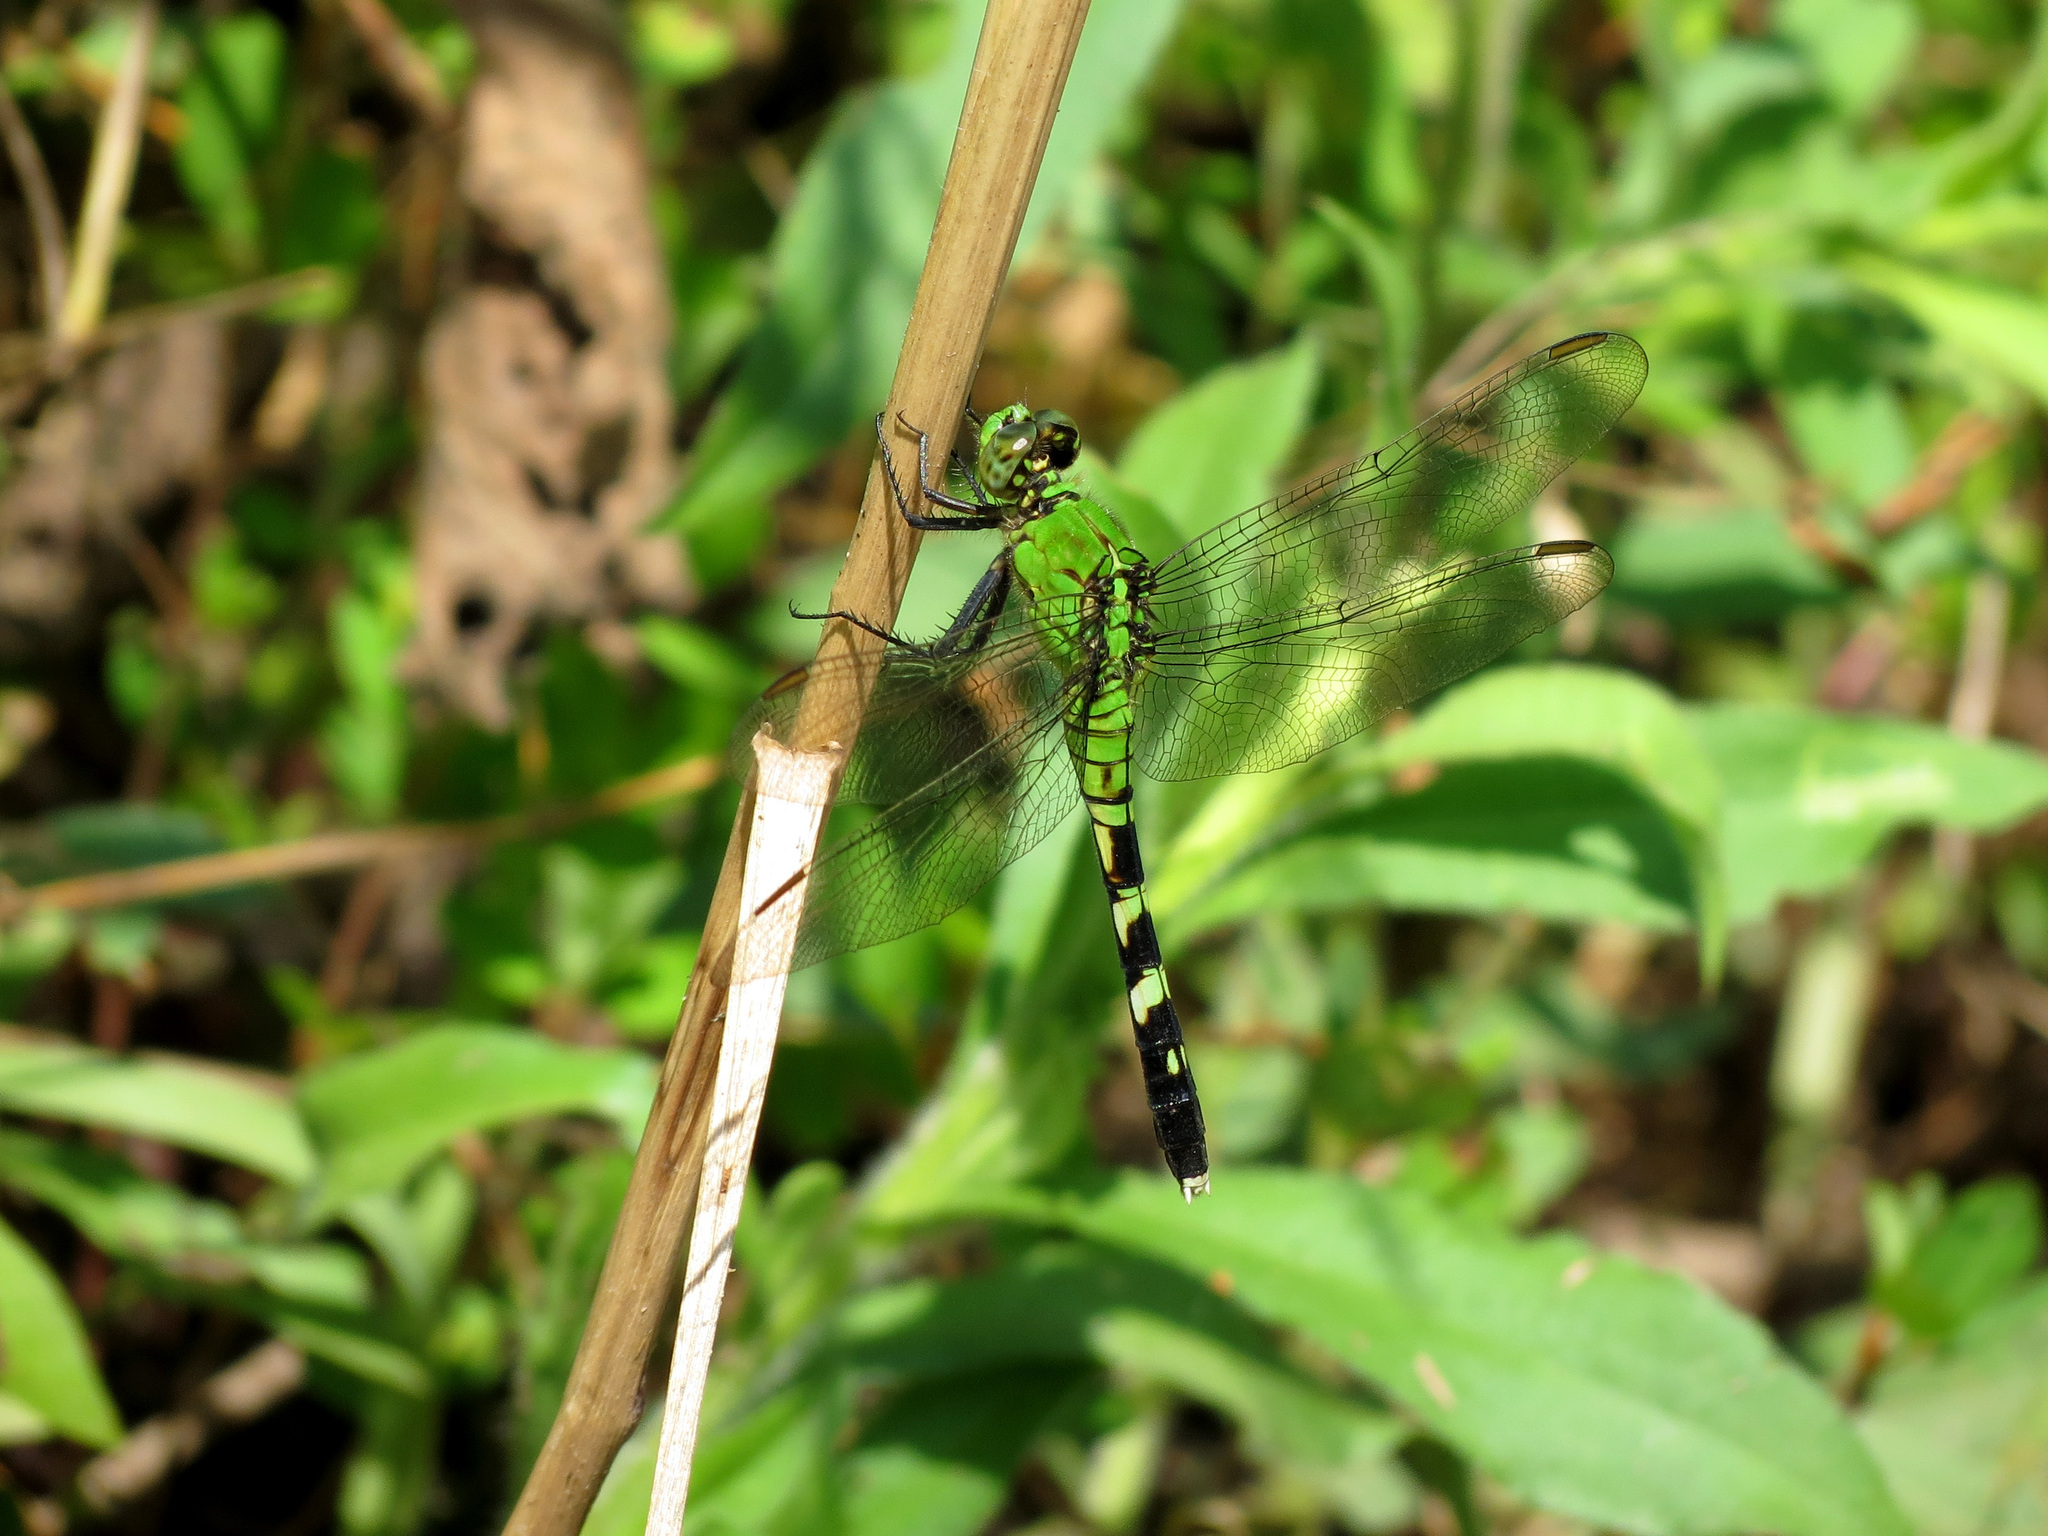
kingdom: Animalia
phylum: Arthropoda
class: Insecta
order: Odonata
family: Libellulidae
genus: Erythemis
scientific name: Erythemis simplicicollis
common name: Eastern pondhawk
